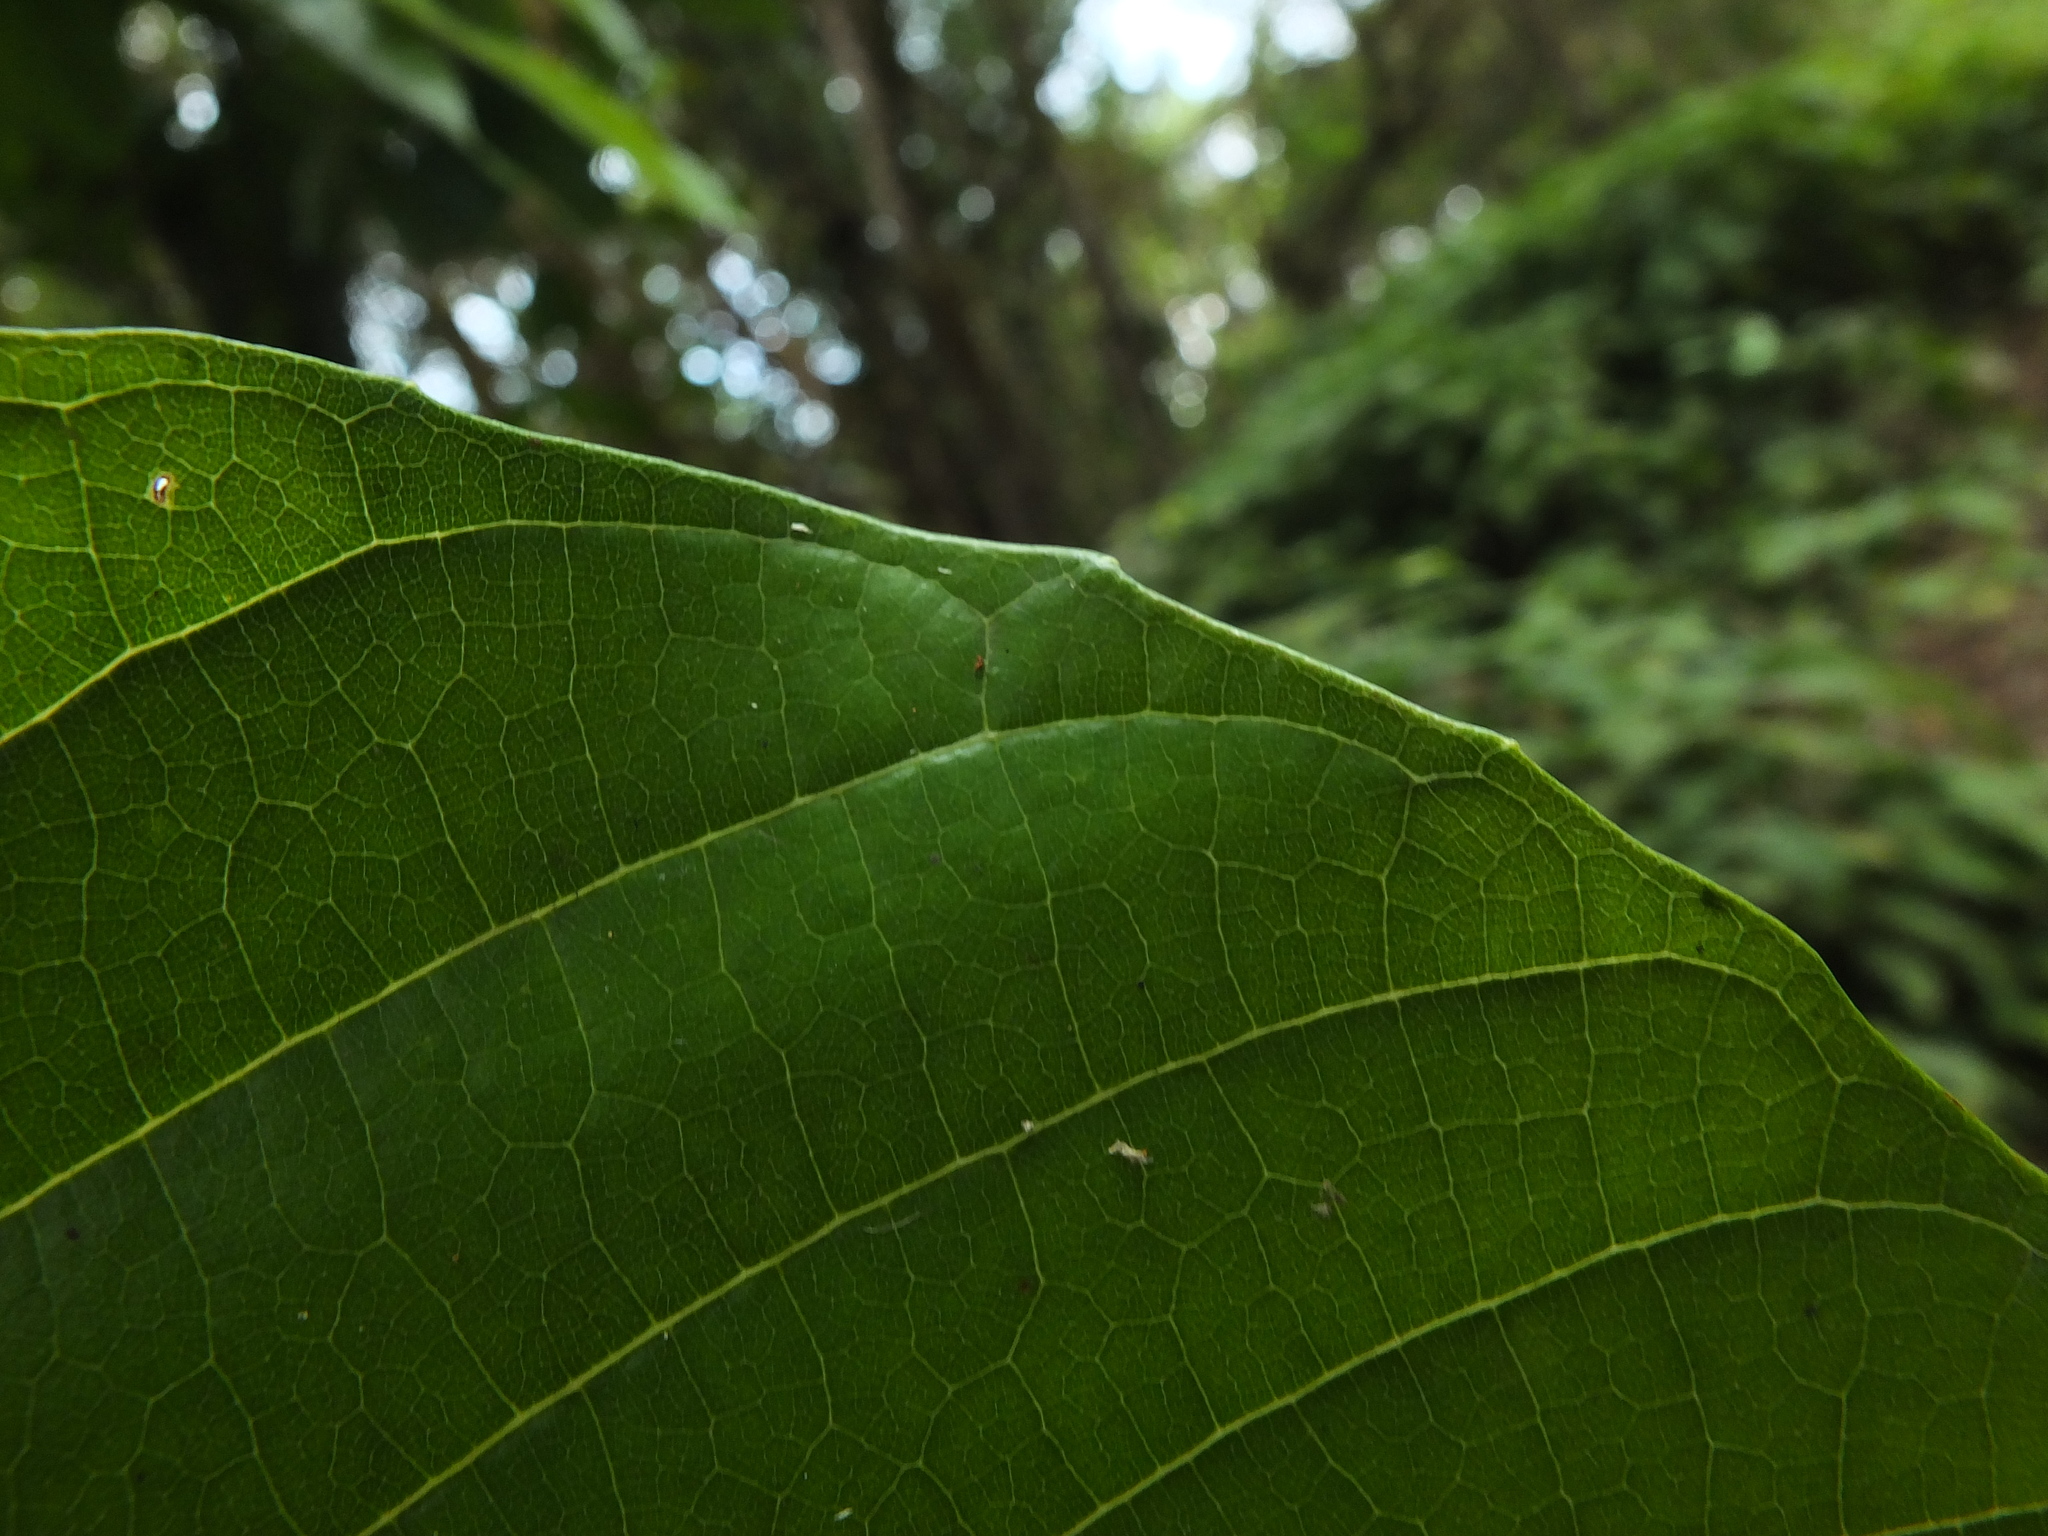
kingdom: Plantae
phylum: Tracheophyta
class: Magnoliopsida
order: Proteales
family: Sabiaceae
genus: Meliosma
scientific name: Meliosma simplicifolia
